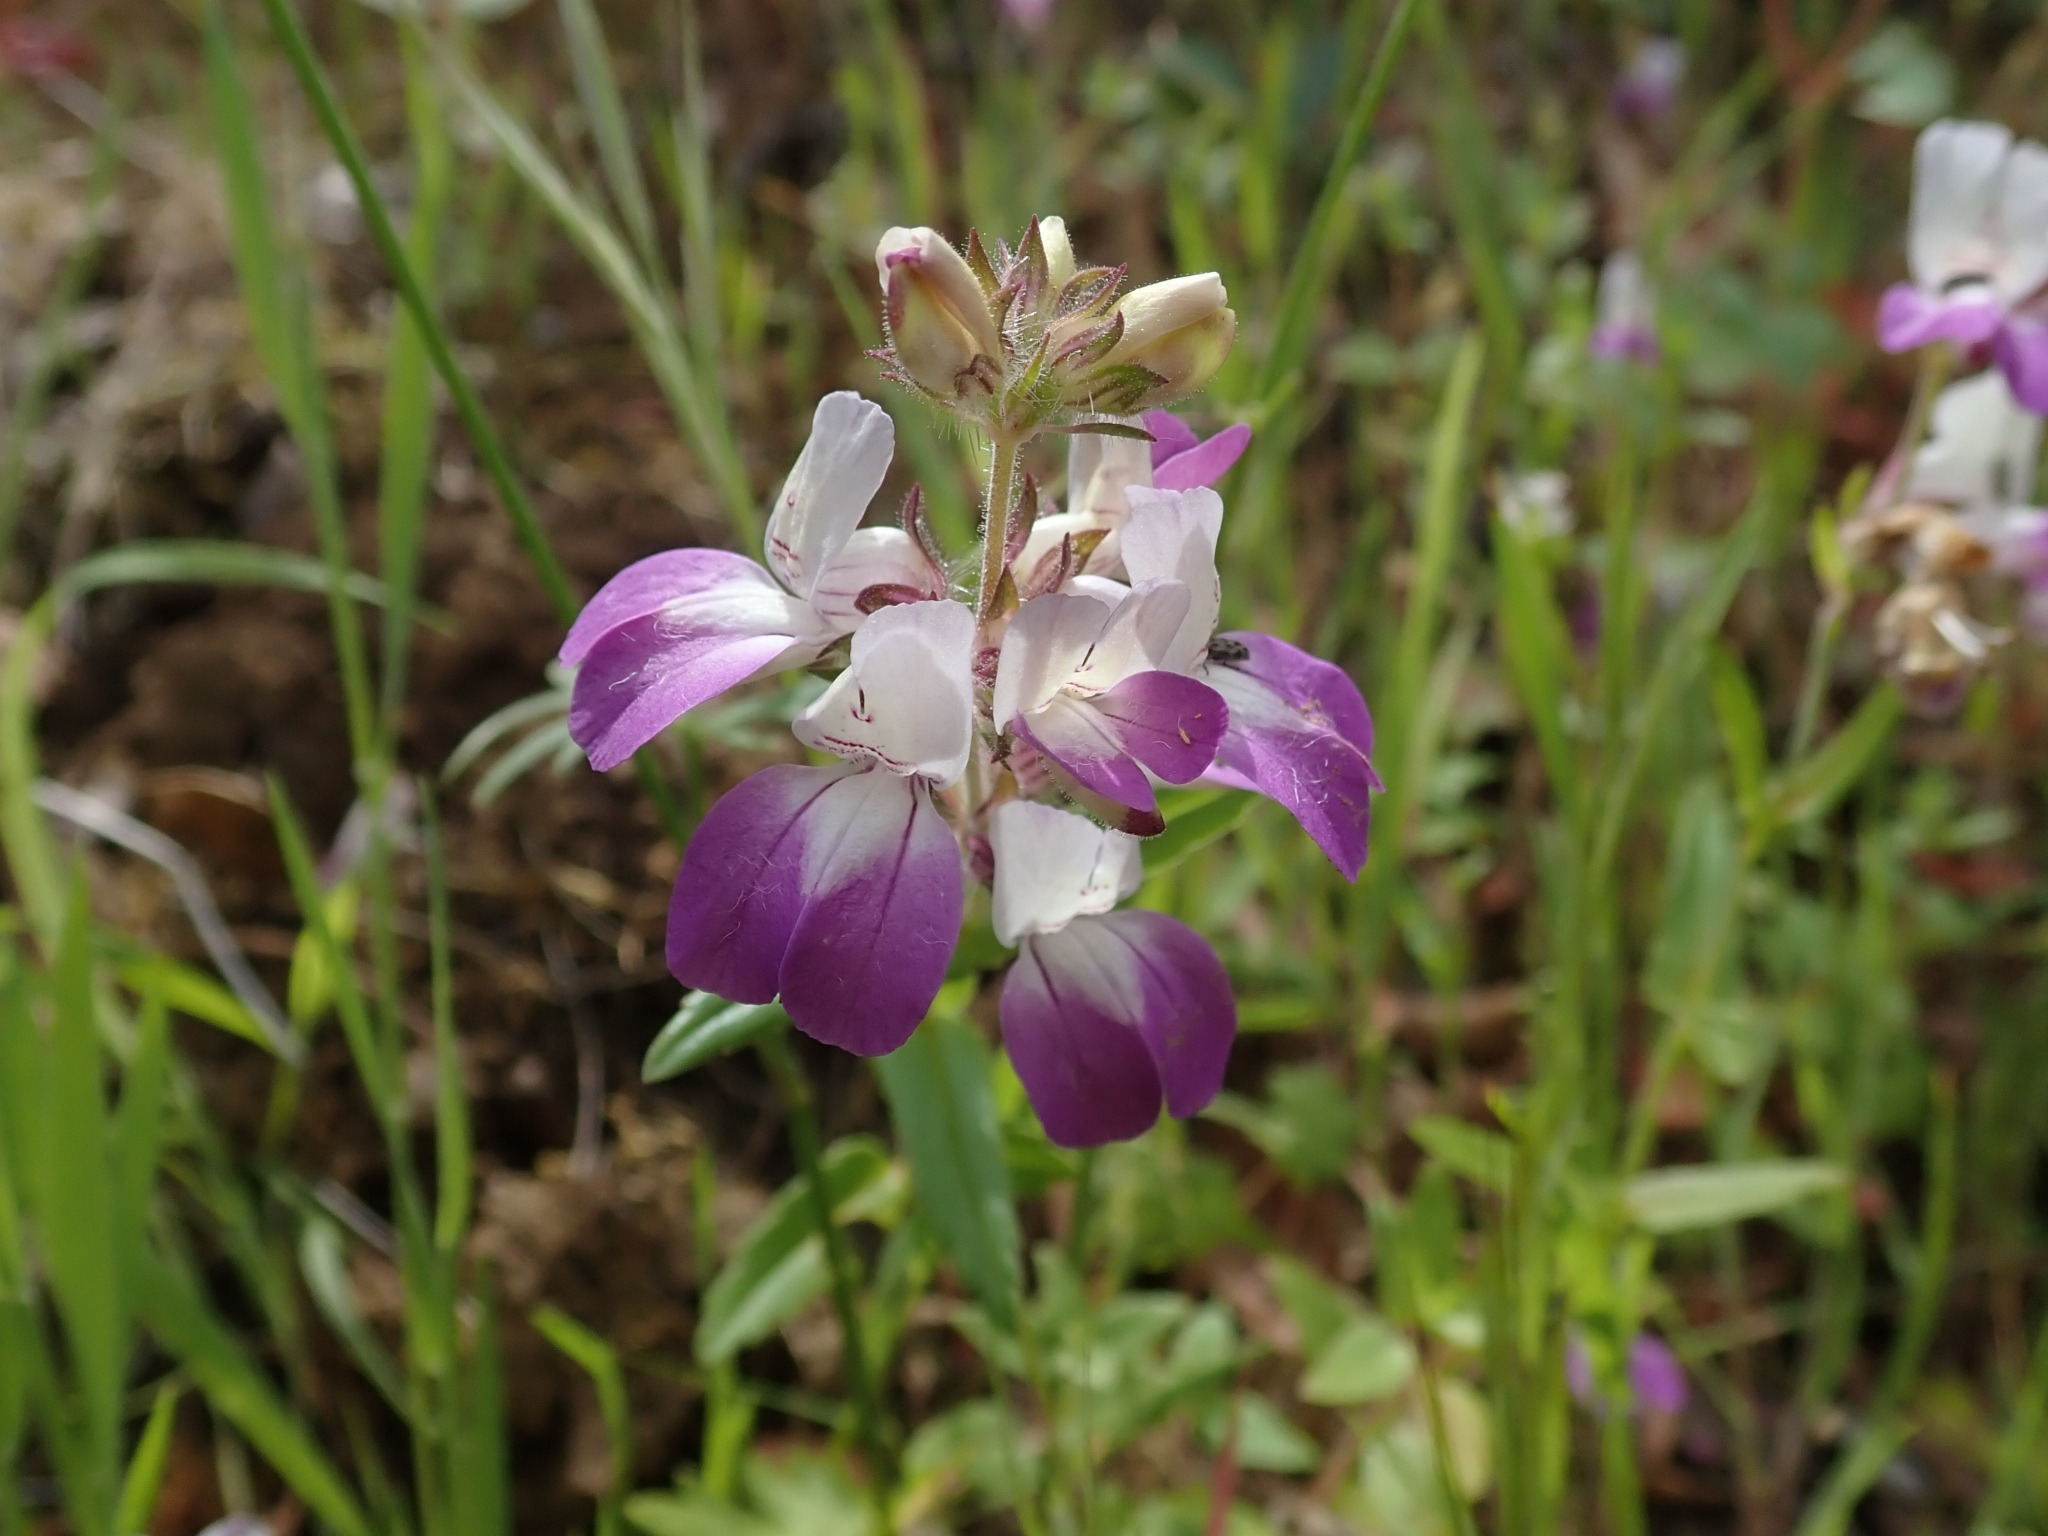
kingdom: Plantae
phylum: Tracheophyta
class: Magnoliopsida
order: Lamiales
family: Plantaginaceae
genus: Collinsia
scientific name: Collinsia heterophylla
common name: Chinese-houses
